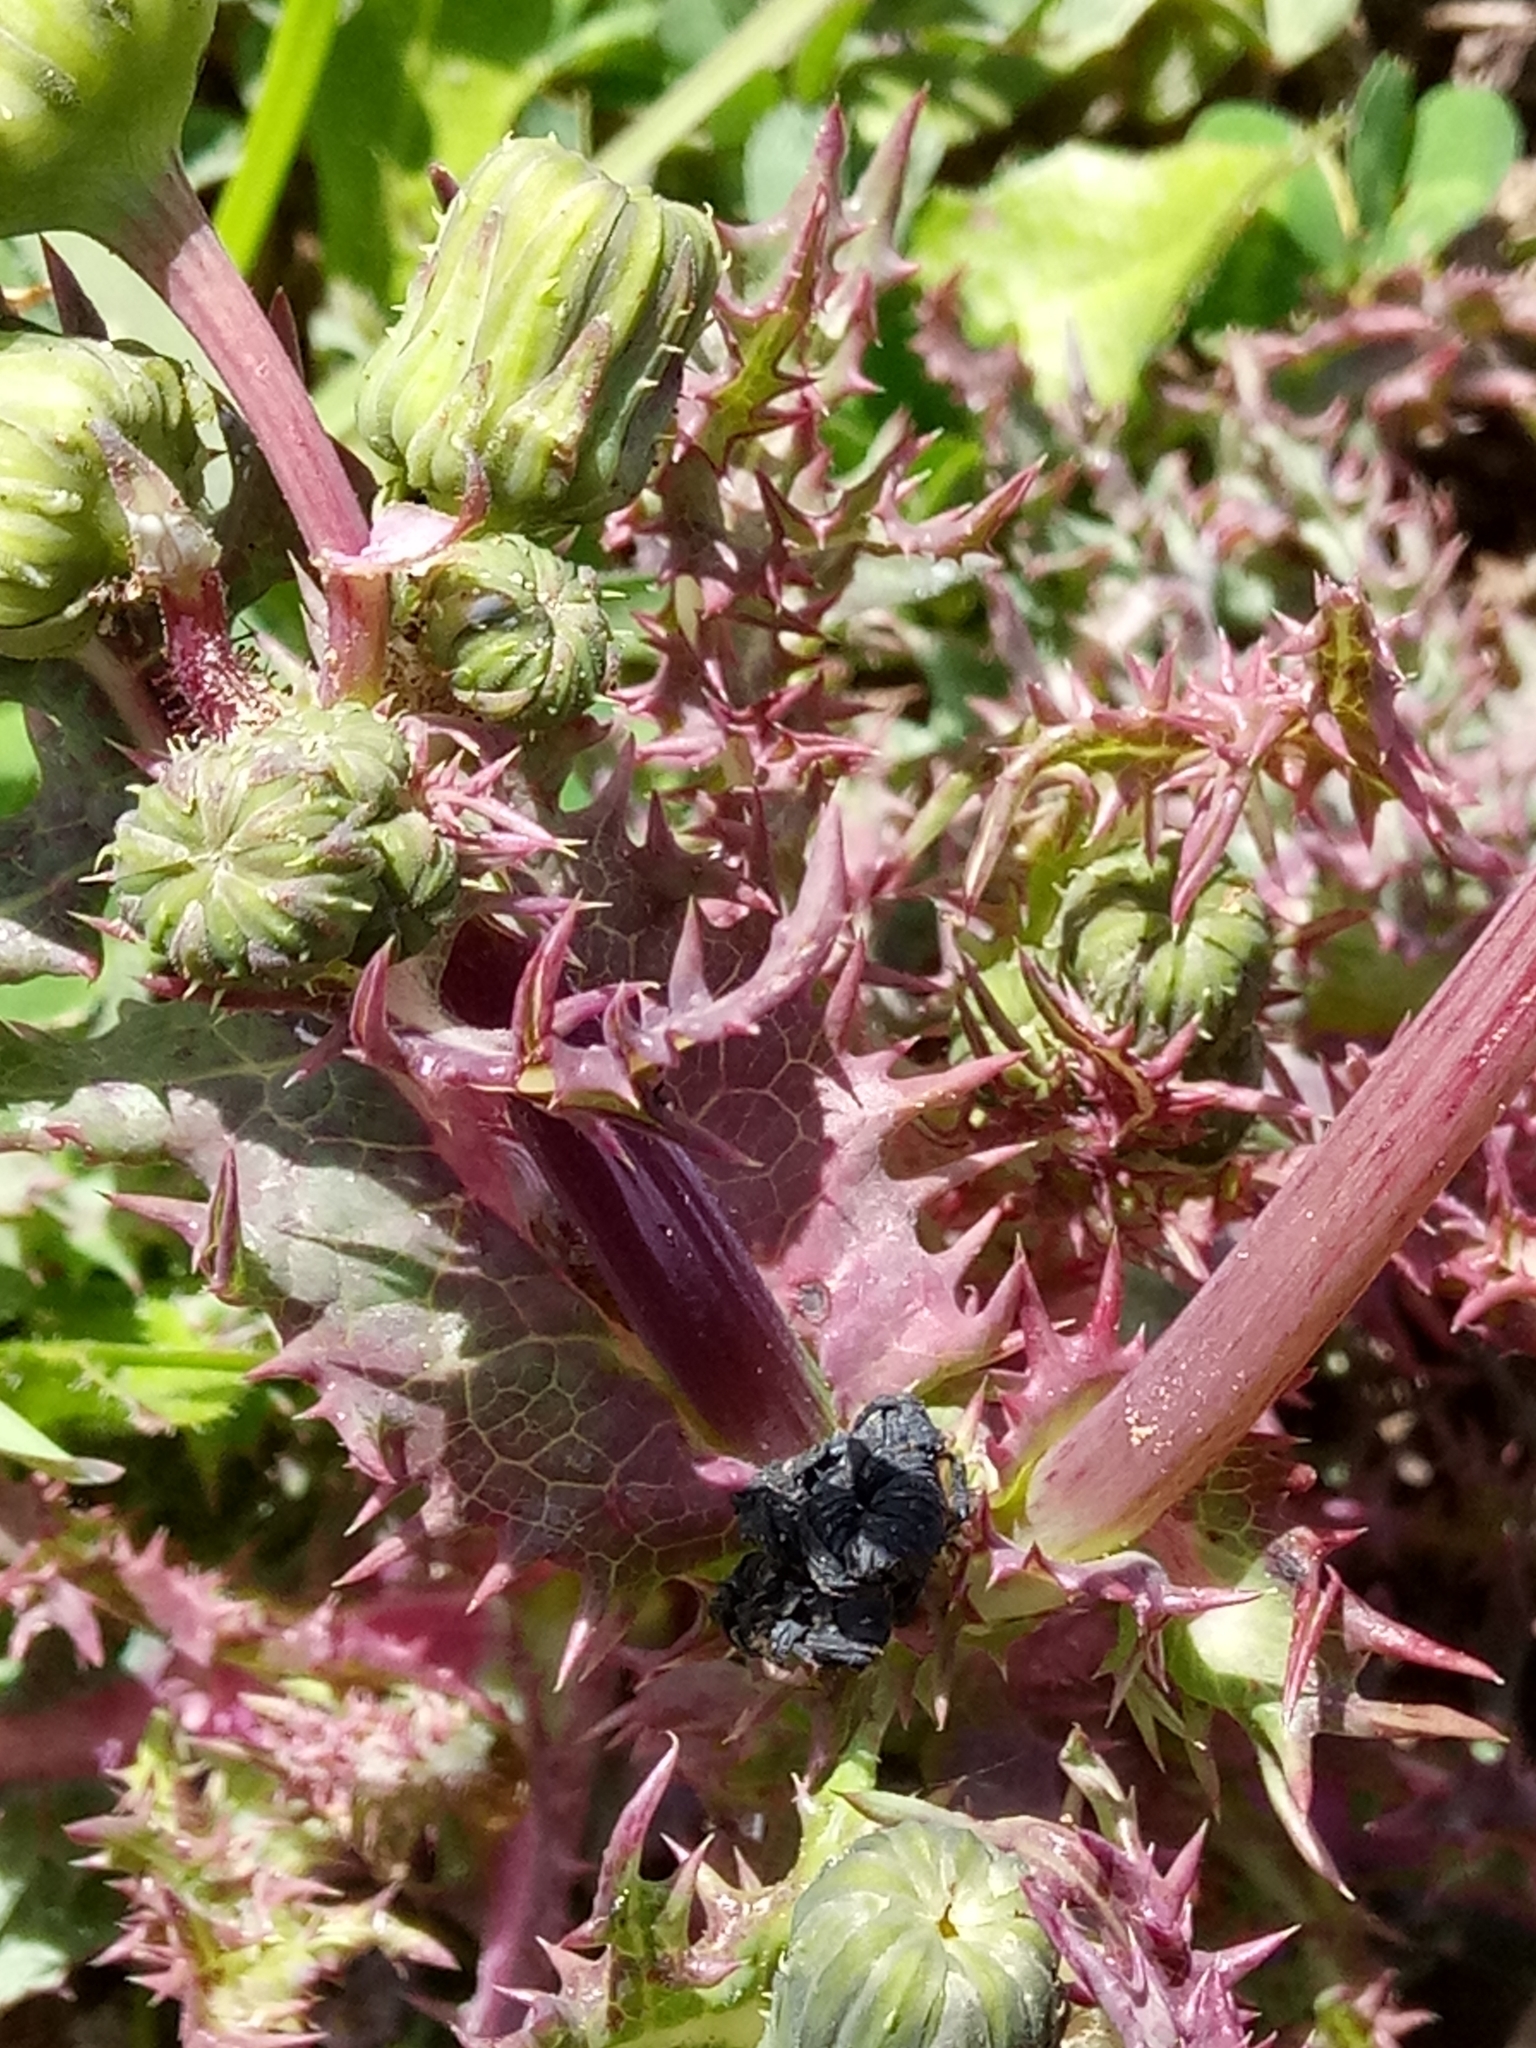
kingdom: Plantae
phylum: Tracheophyta
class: Magnoliopsida
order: Asterales
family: Asteraceae
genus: Sonchus
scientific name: Sonchus asper
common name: Prickly sow-thistle
